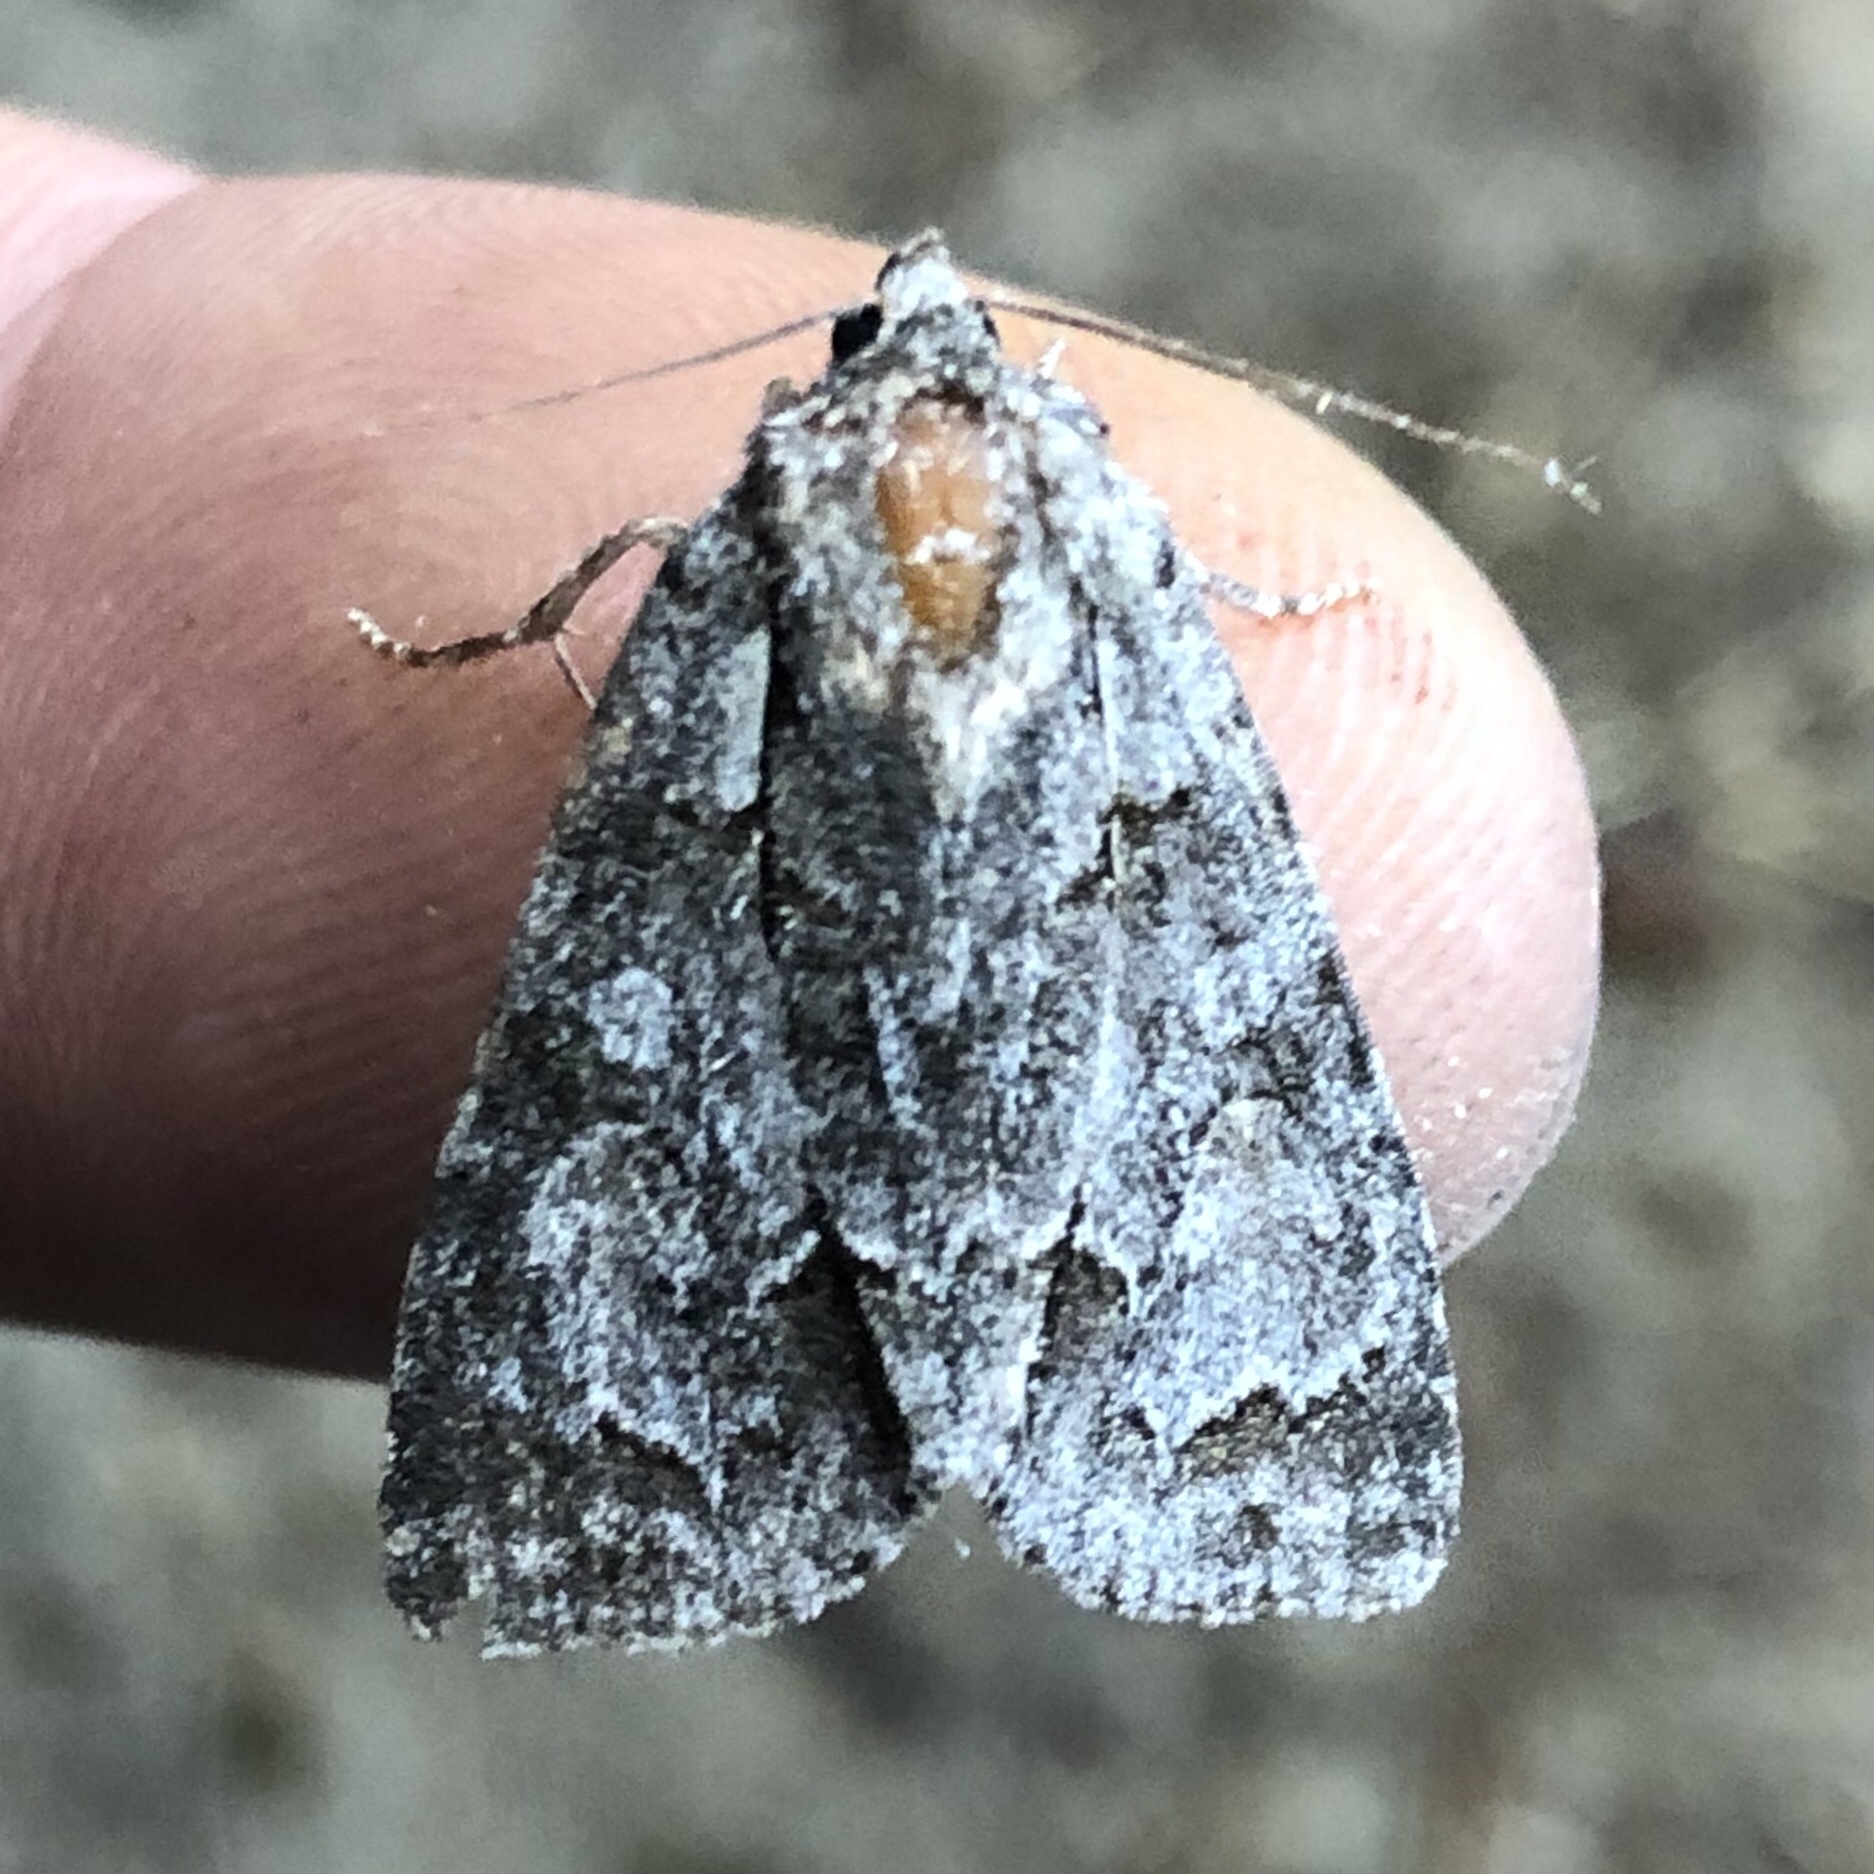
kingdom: Animalia
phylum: Arthropoda
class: Insecta
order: Lepidoptera
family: Noctuidae
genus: Acronicta
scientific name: Acronicta grisea
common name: Gray dagger
